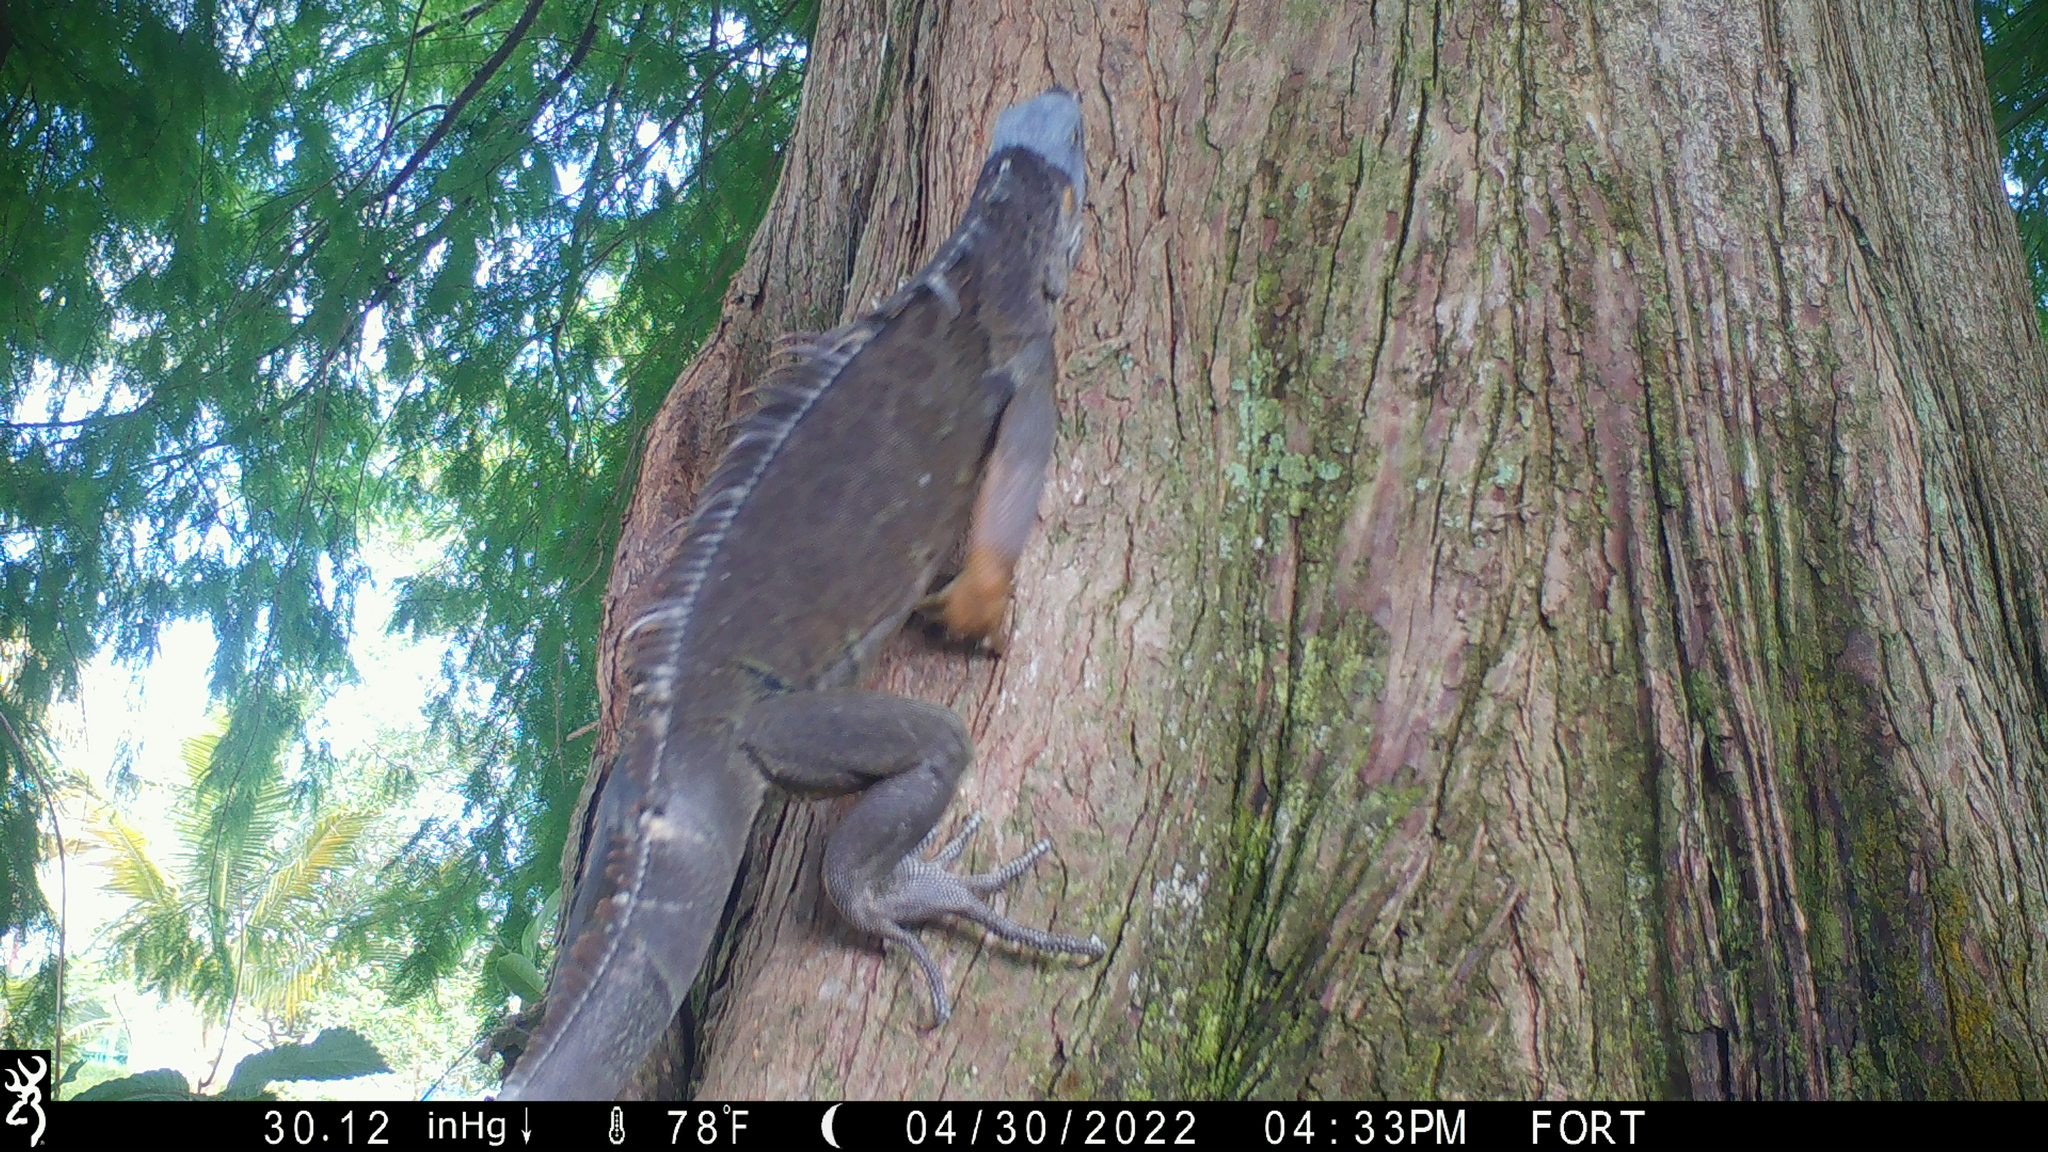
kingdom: Animalia
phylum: Chordata
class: Squamata
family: Iguanidae
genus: Iguana
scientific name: Iguana iguana
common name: Green iguana
